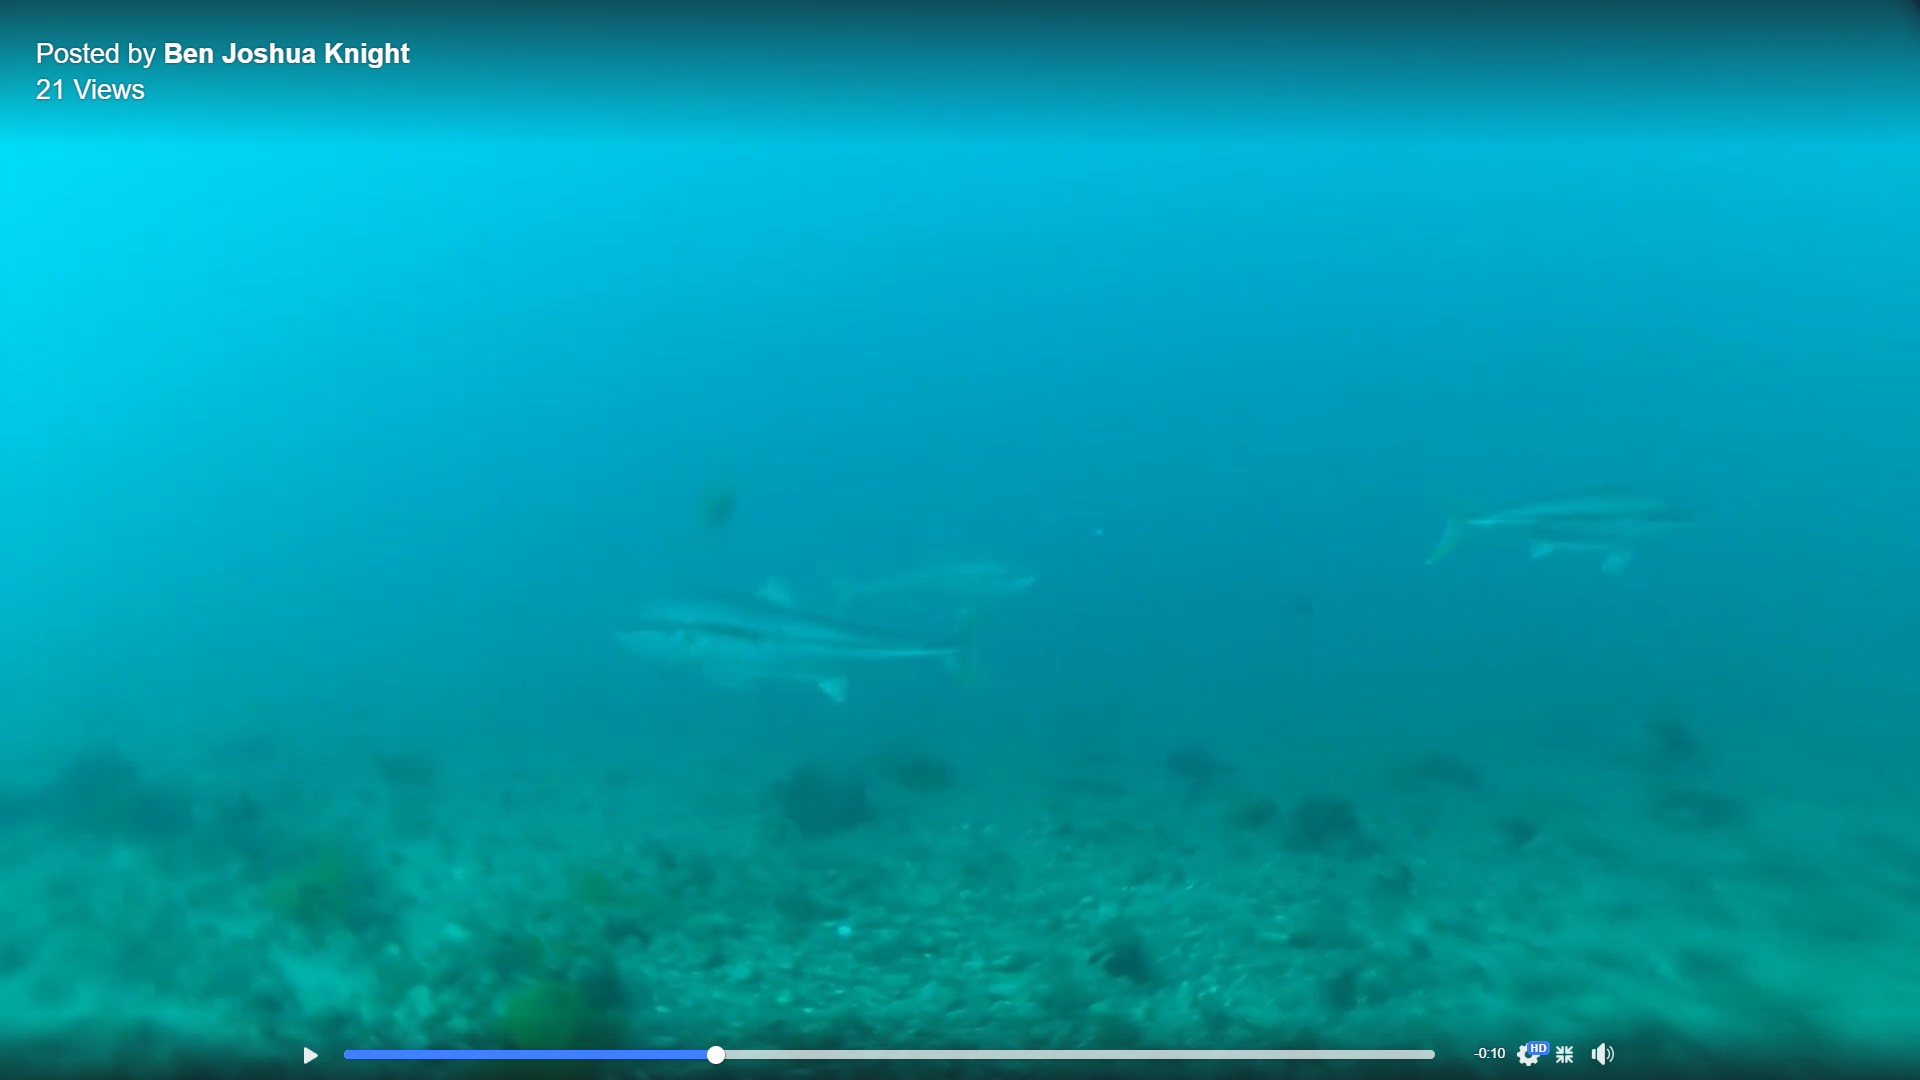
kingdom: Animalia
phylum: Chordata
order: Perciformes
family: Carangidae
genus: Seriola
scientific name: Seriola lalandi
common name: Yellowtail kingfish
